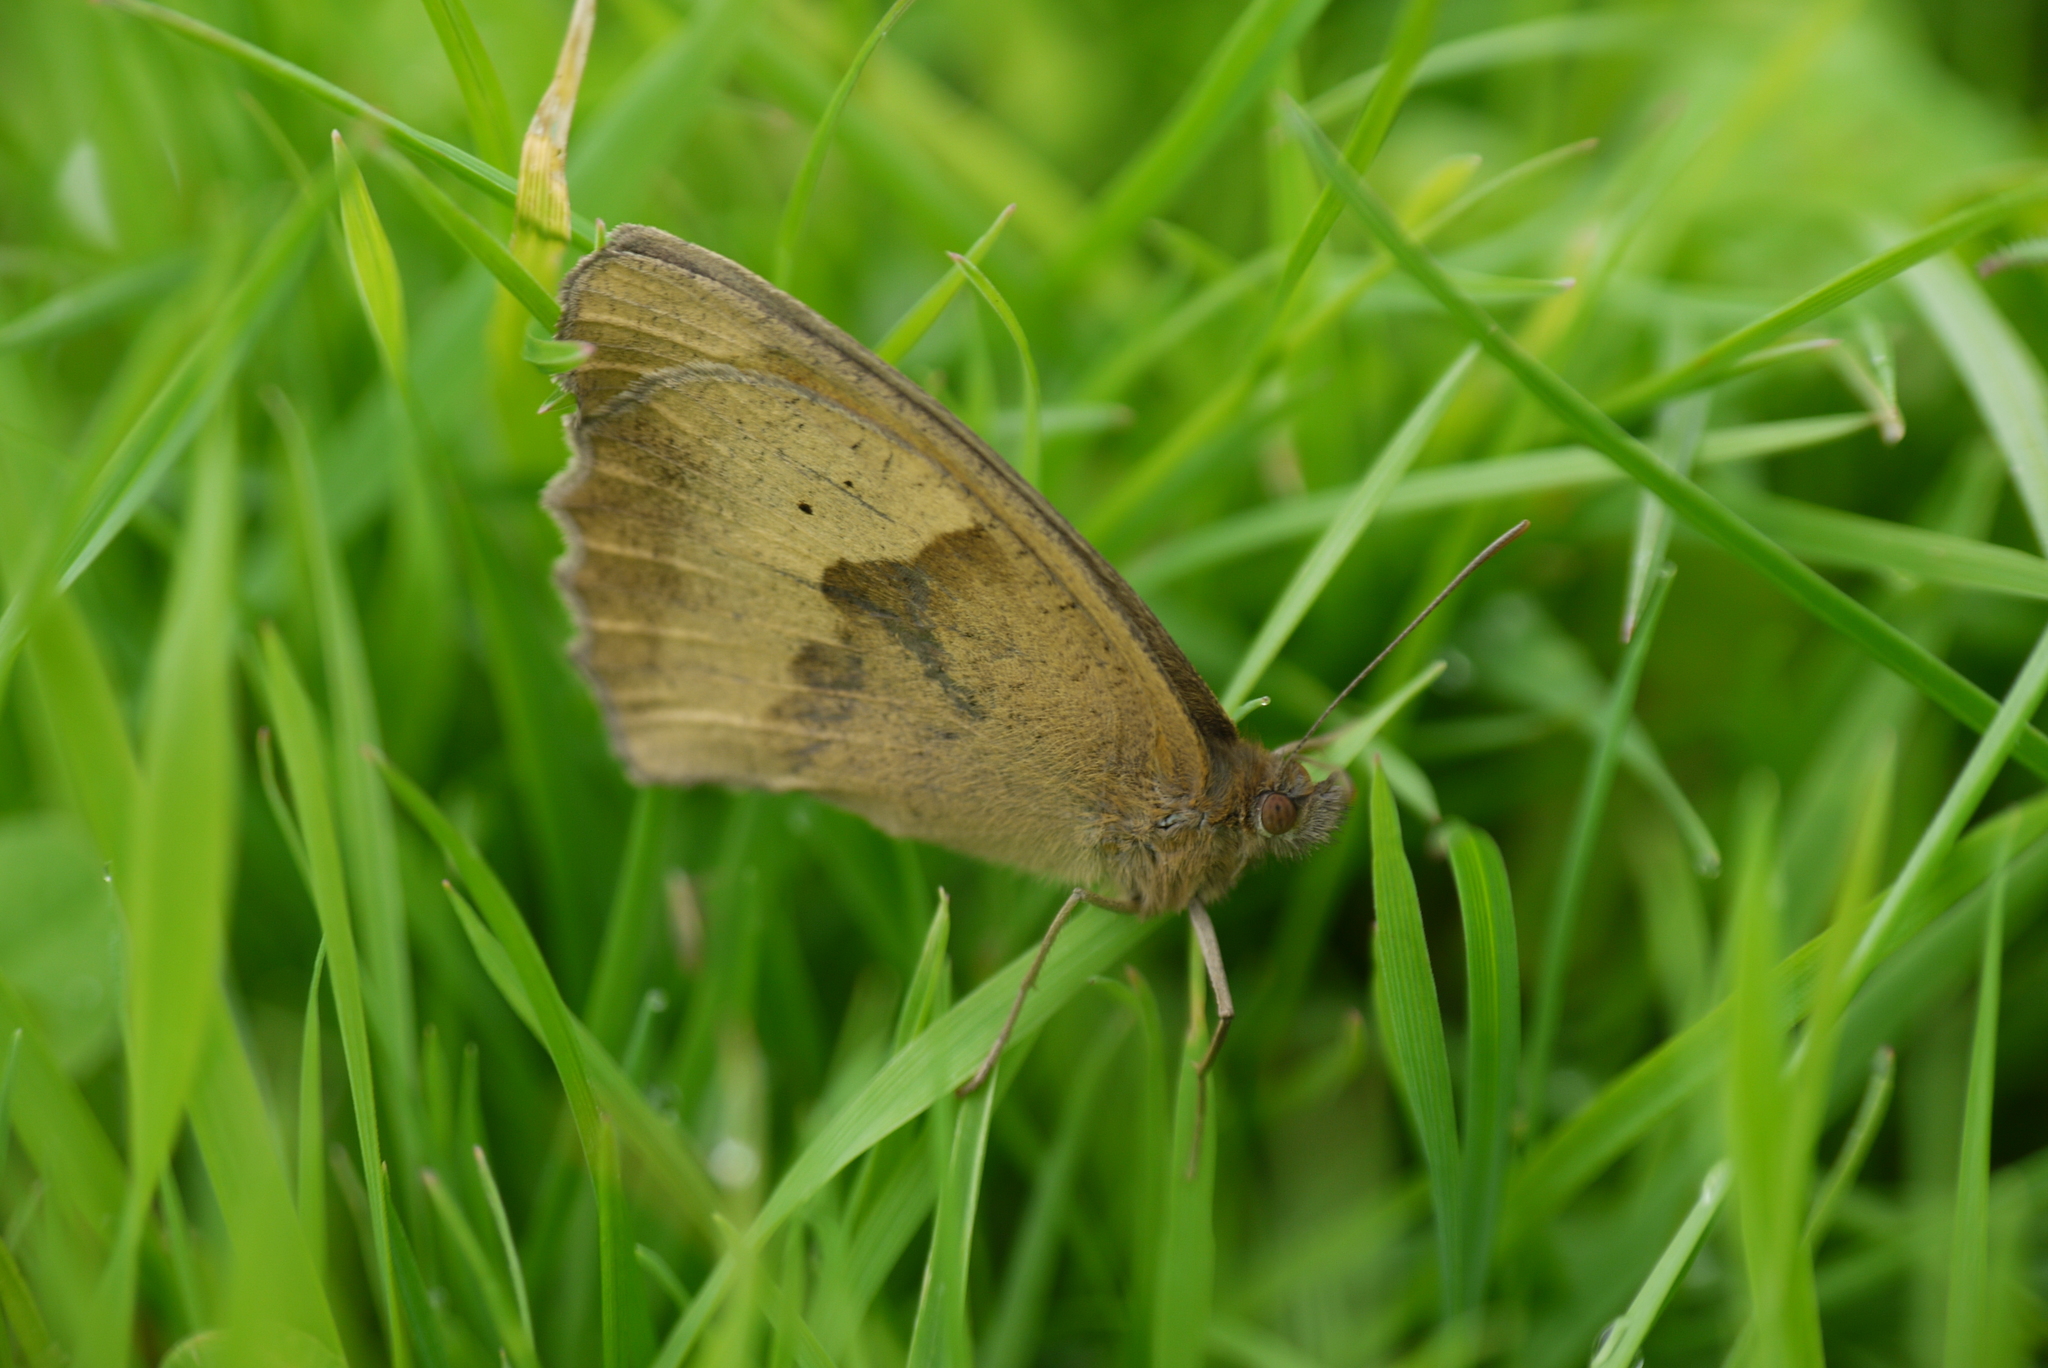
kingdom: Animalia
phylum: Arthropoda
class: Insecta
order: Lepidoptera
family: Nymphalidae
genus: Maniola
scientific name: Maniola jurtina
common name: Meadow brown
